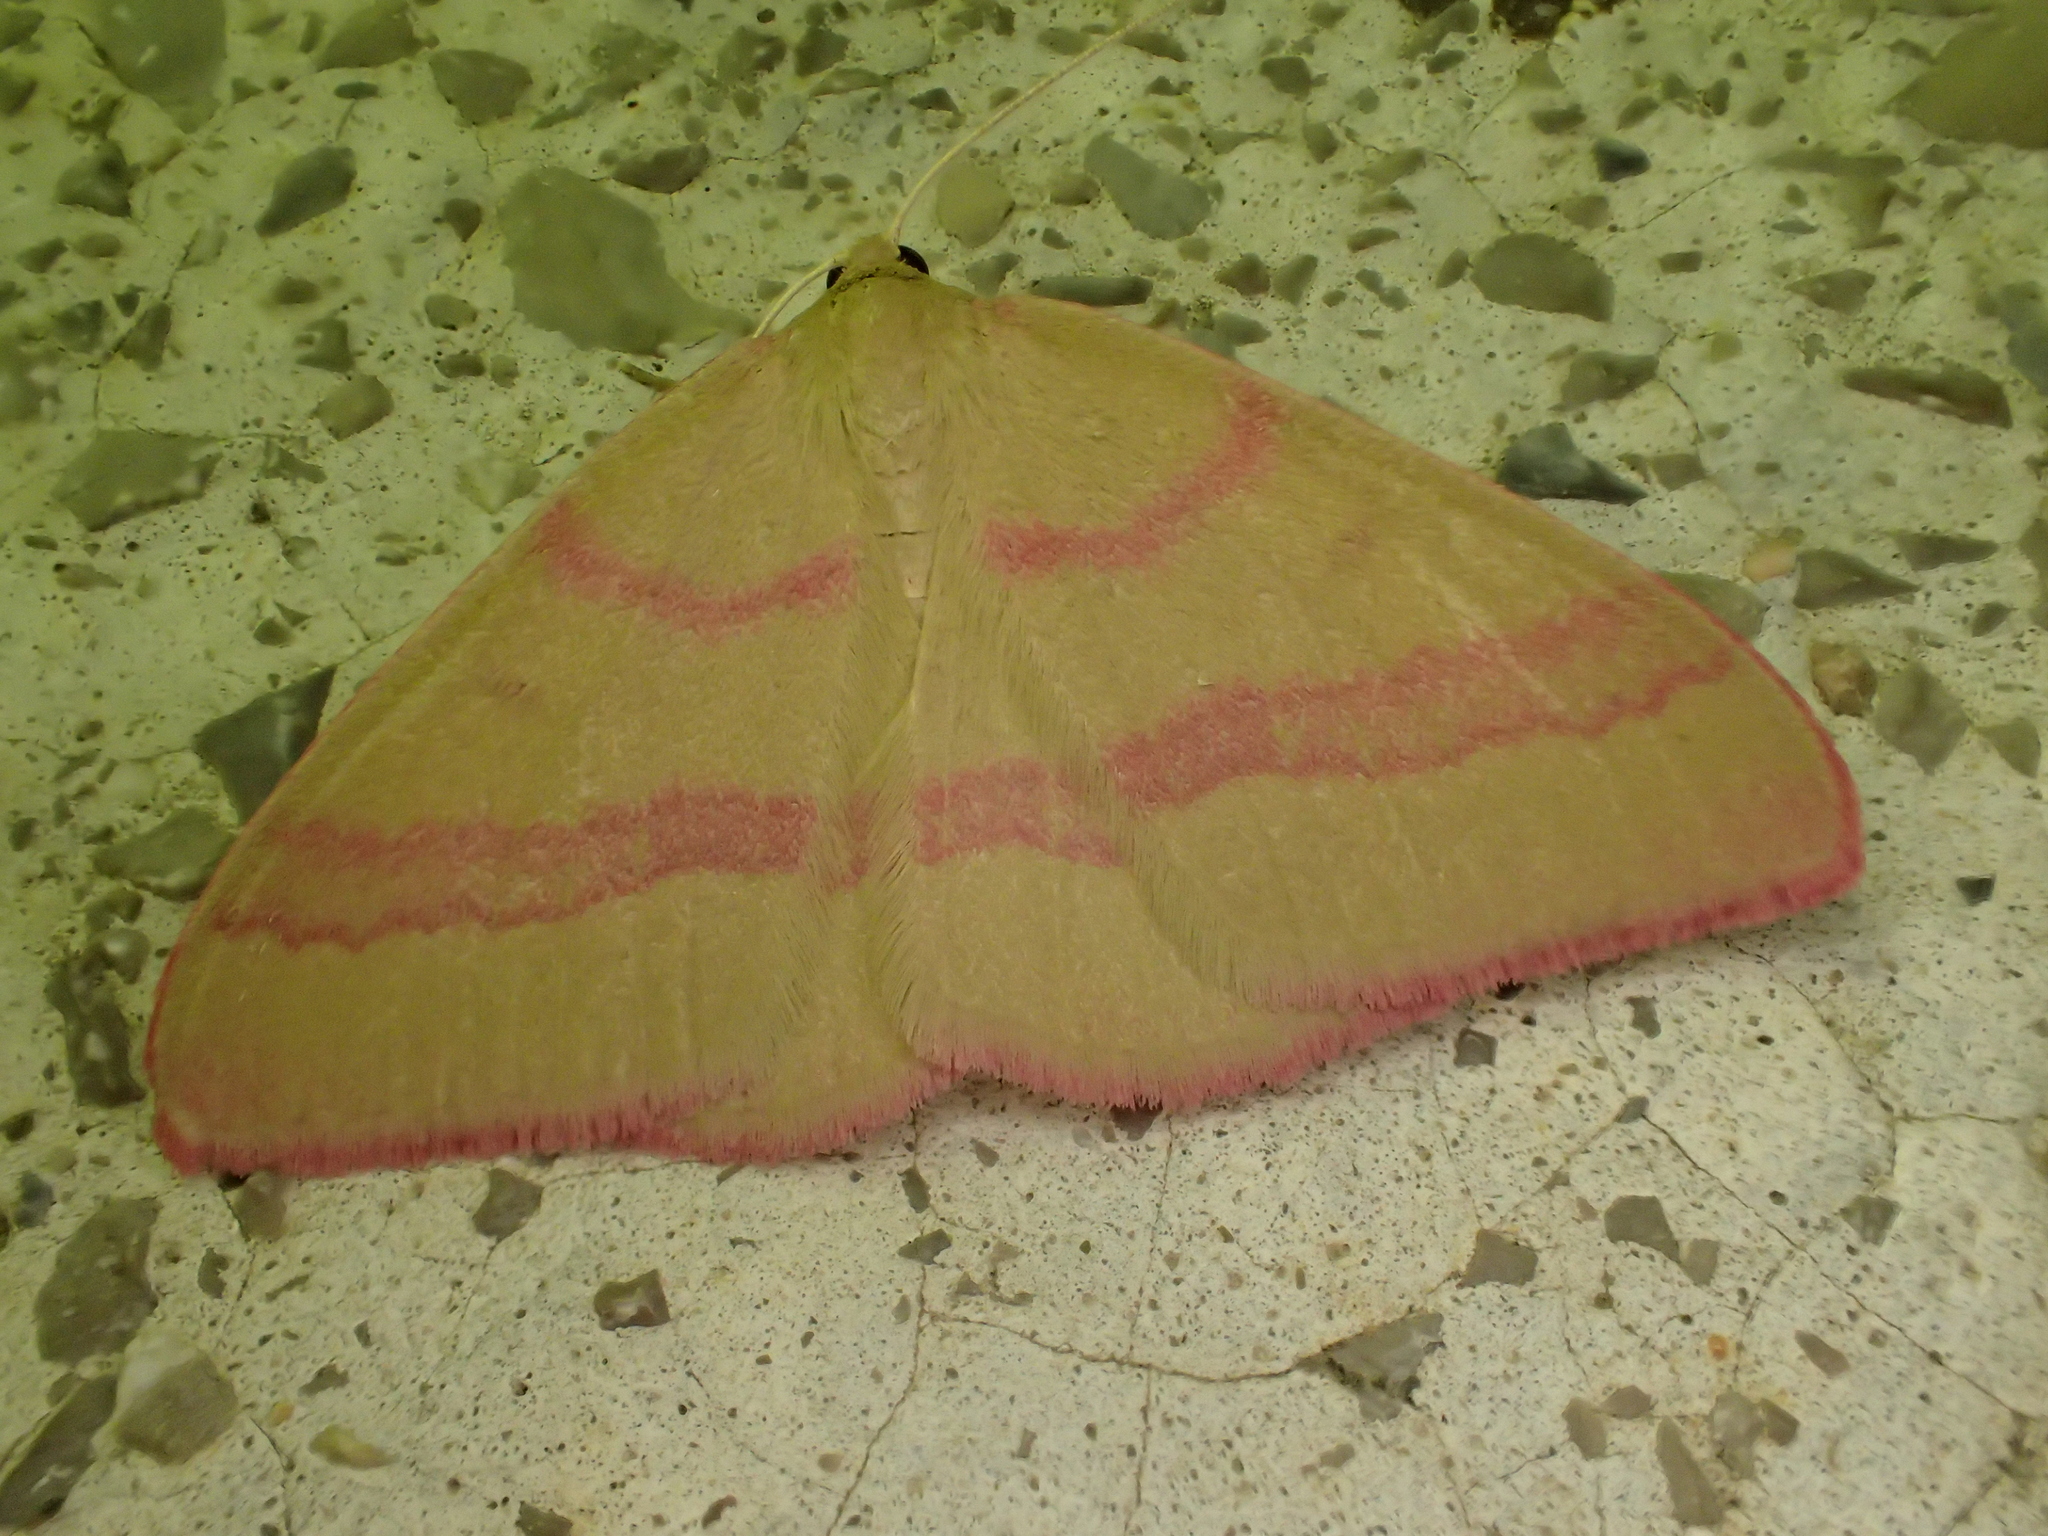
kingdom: Animalia
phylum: Arthropoda
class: Insecta
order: Lepidoptera
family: Geometridae
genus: Rhodostrophia
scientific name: Rhodostrophia calabra
